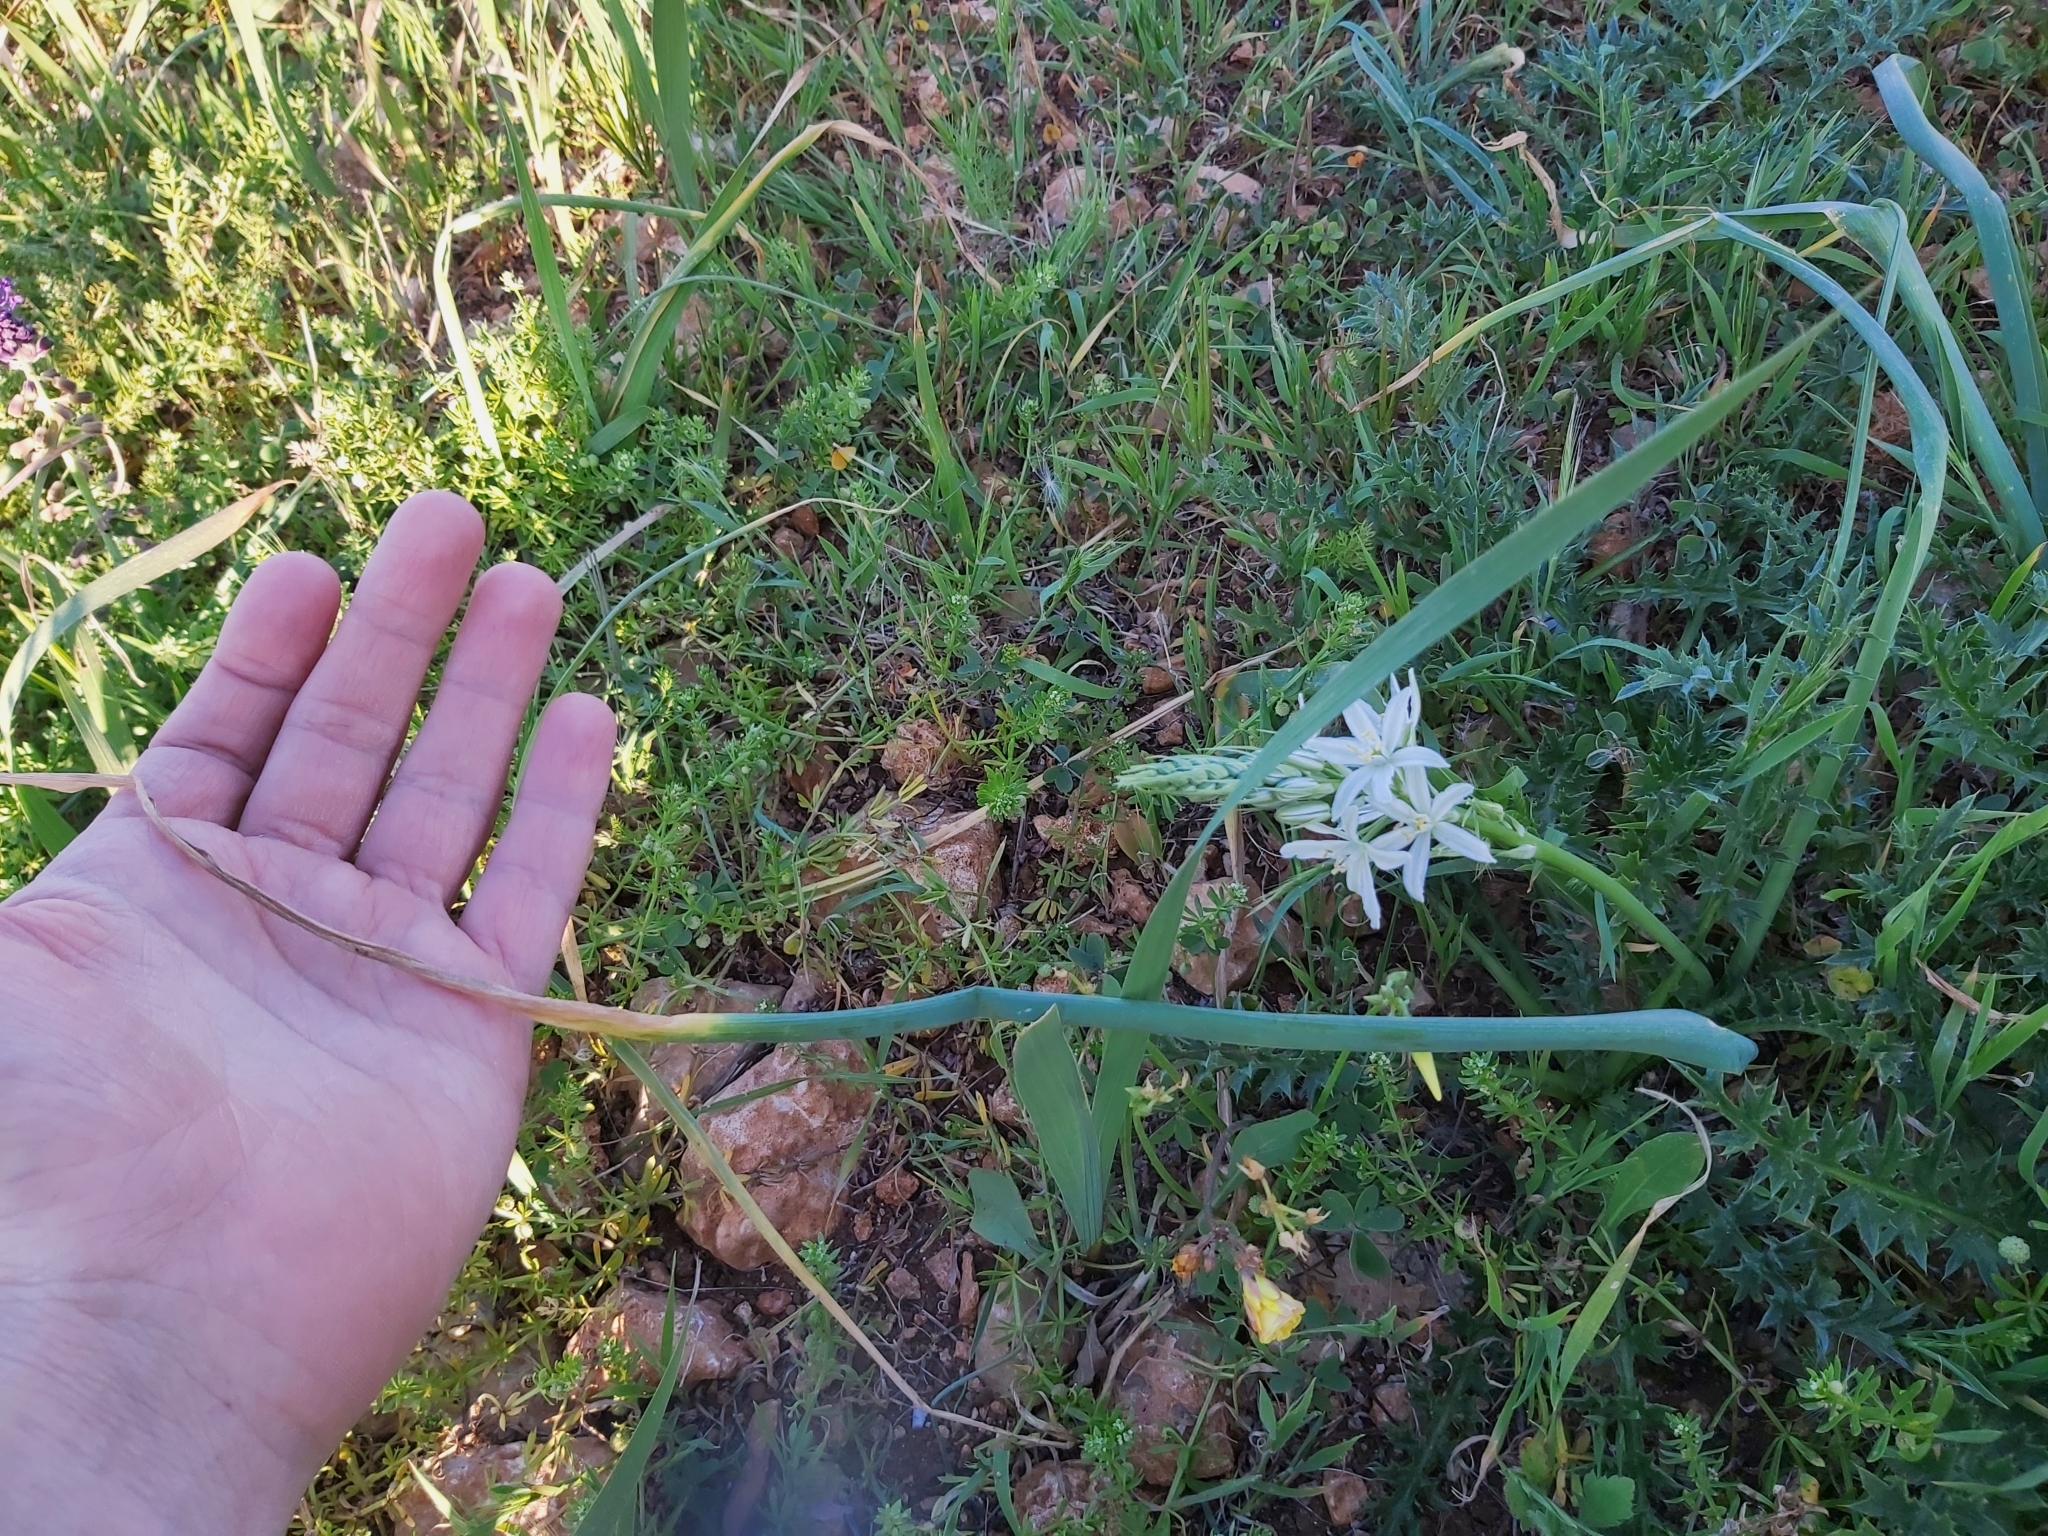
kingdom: Plantae
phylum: Tracheophyta
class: Liliopsida
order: Asparagales
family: Asparagaceae
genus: Ornithogalum
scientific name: Ornithogalum narbonense
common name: Bath-asparagus
